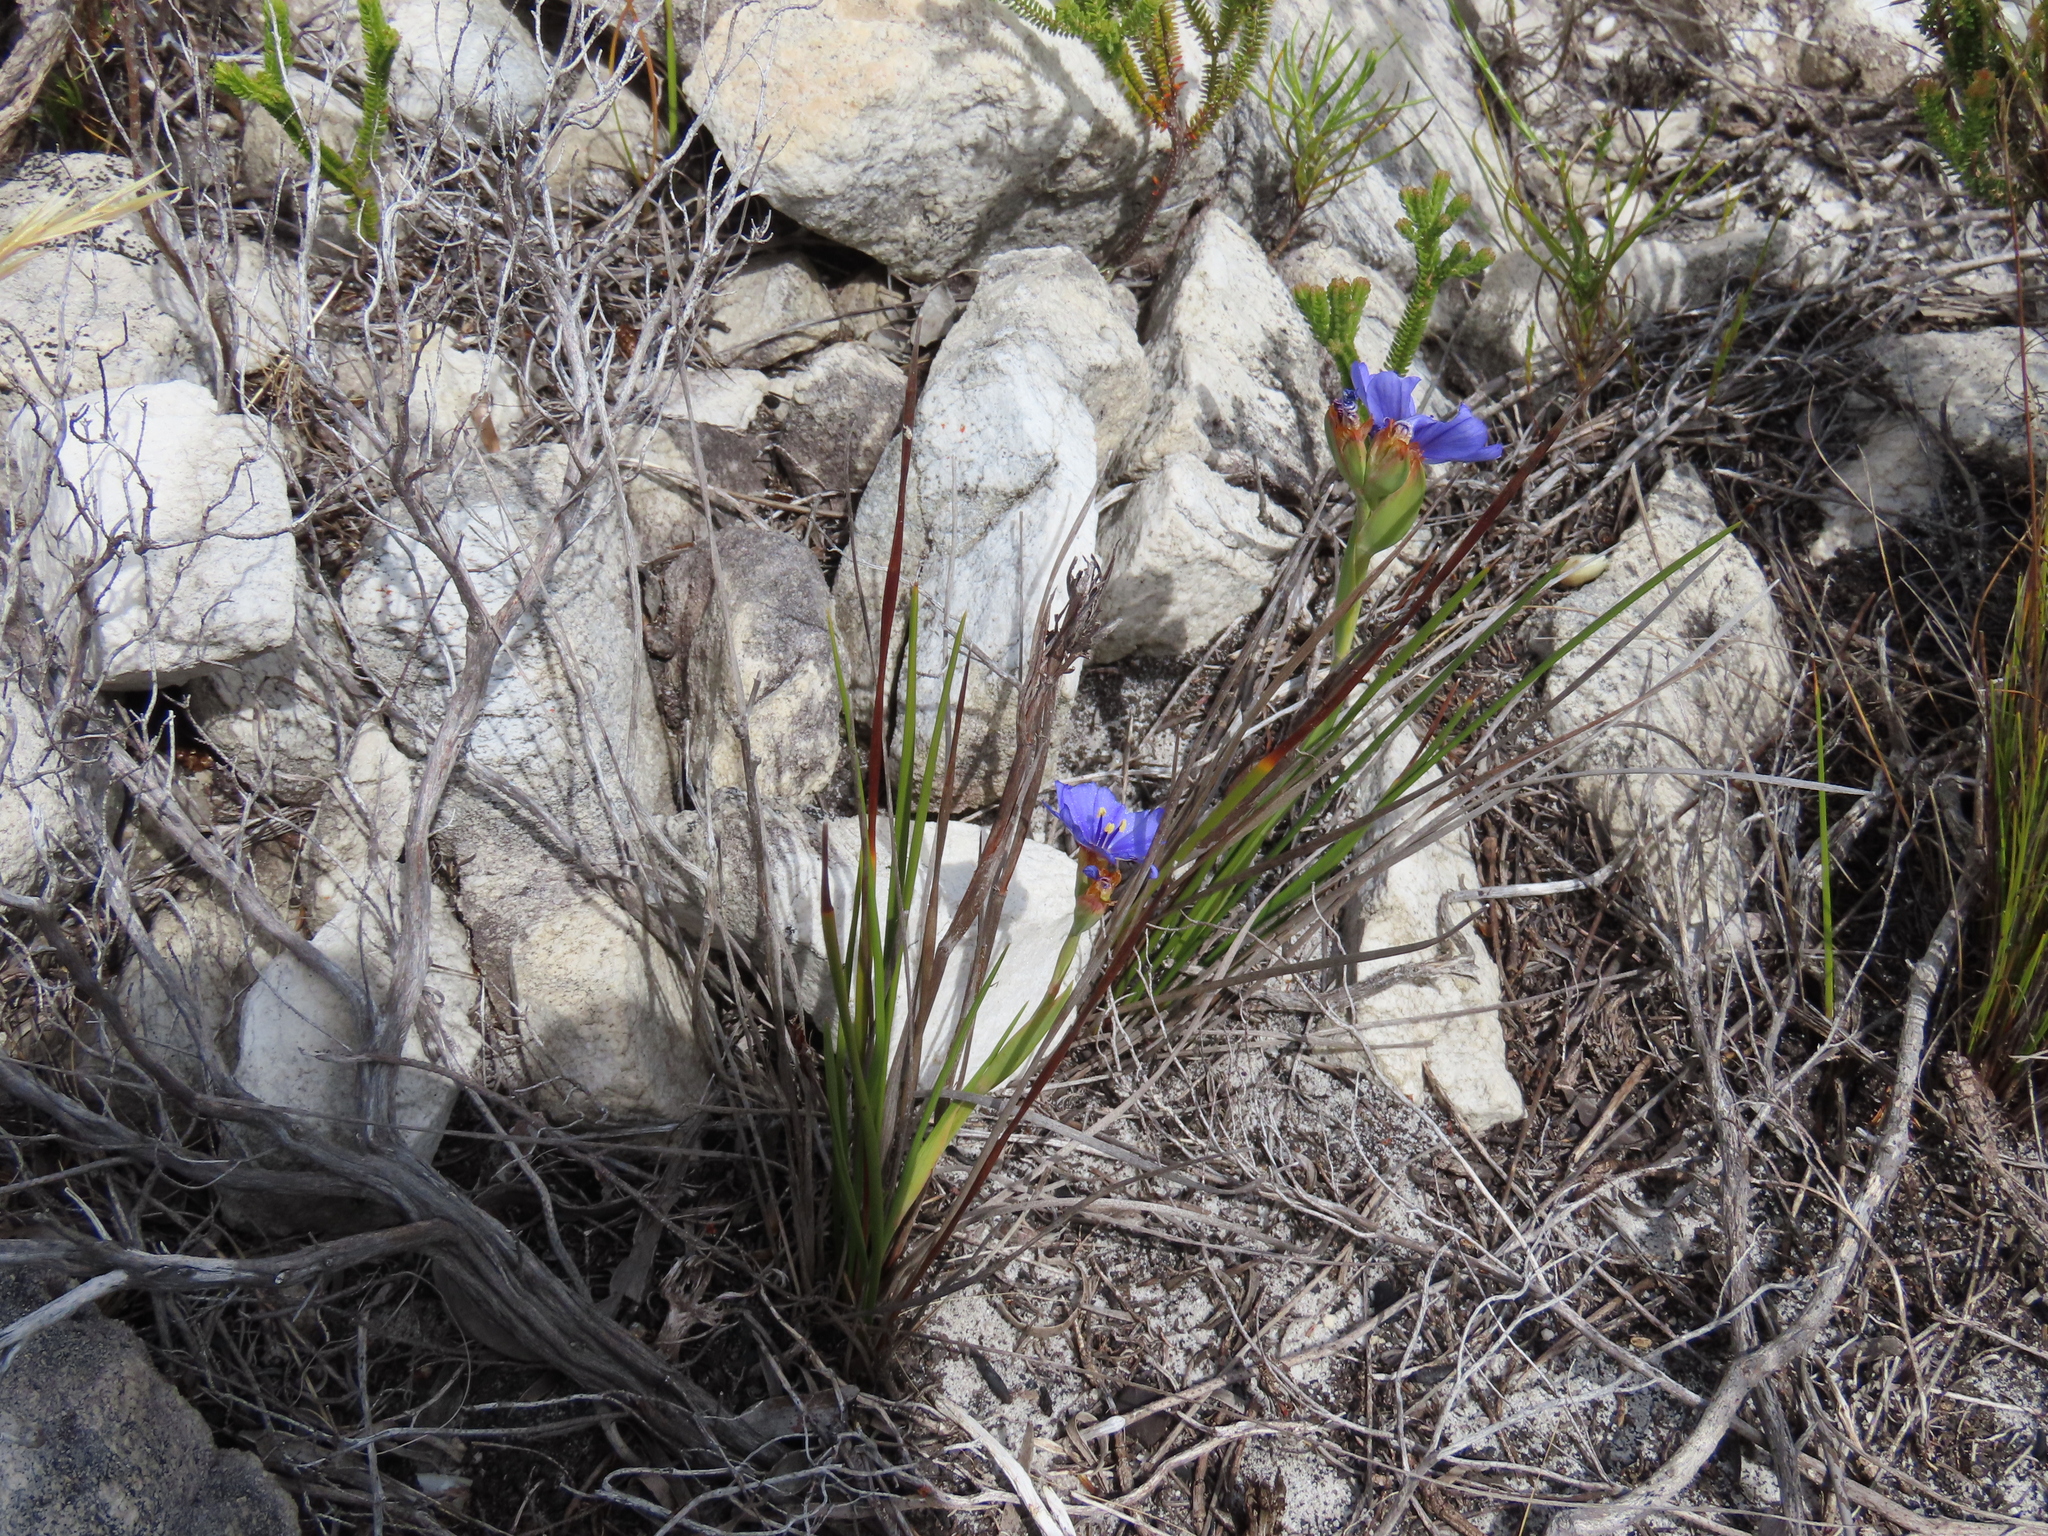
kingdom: Plantae
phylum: Tracheophyta
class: Liliopsida
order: Asparagales
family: Iridaceae
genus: Aristea
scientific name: Aristea juncifolia
